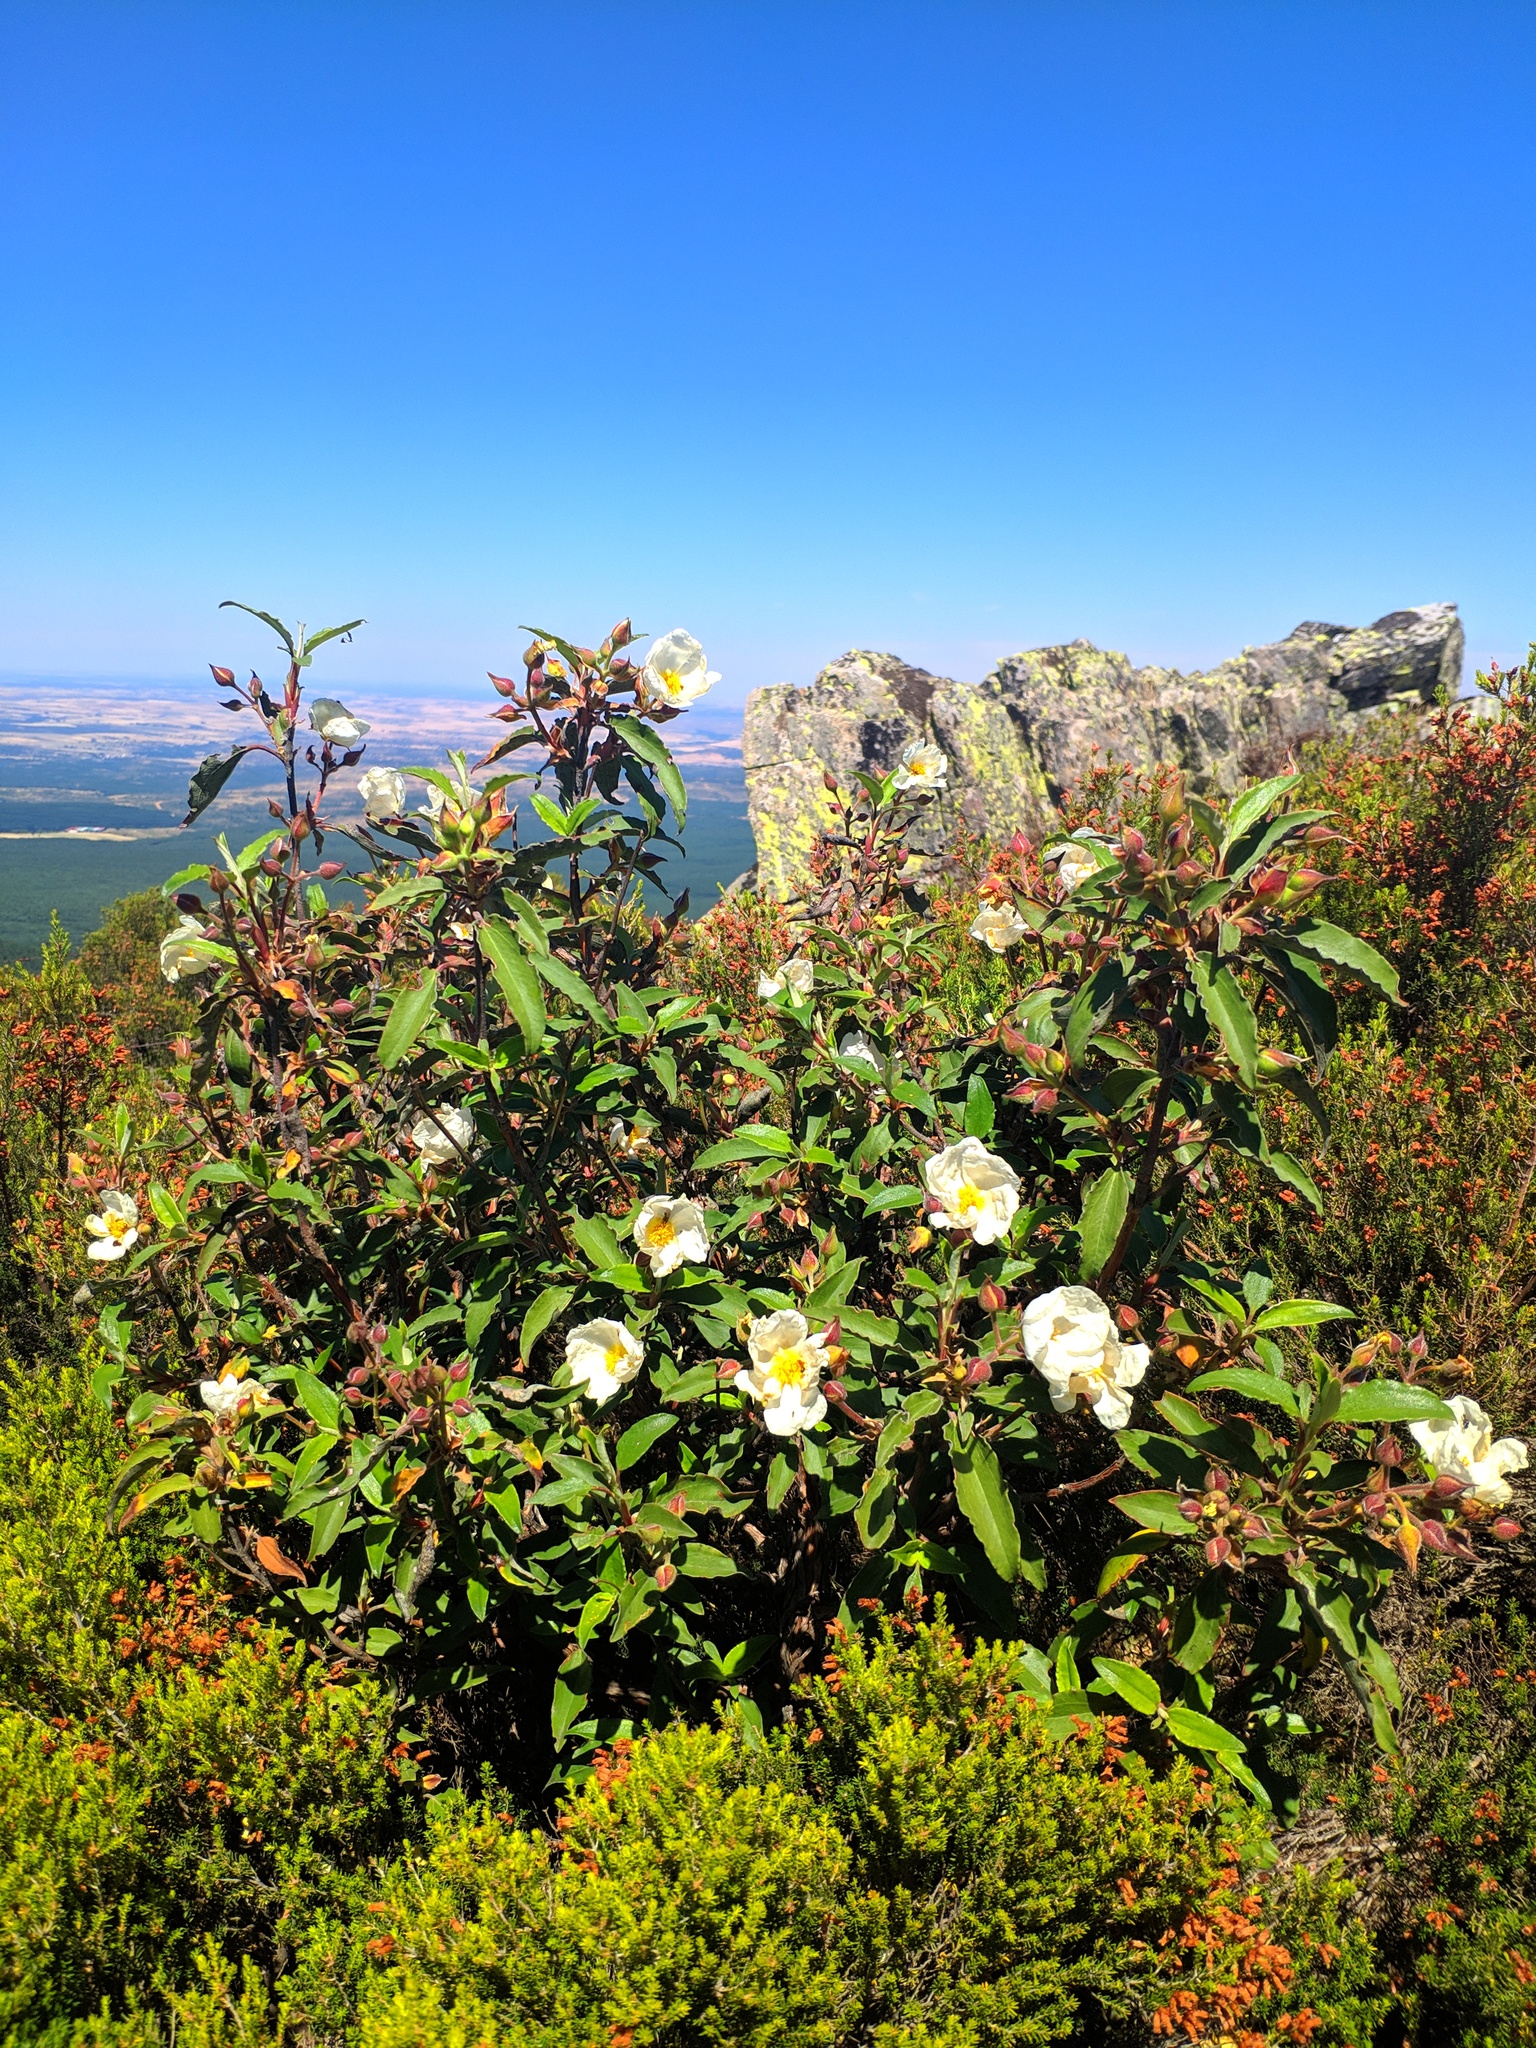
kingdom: Plantae
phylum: Tracheophyta
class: Magnoliopsida
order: Malvales
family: Cistaceae
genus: Cistus
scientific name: Cistus laurifolius
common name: Laurel-leaved cistus
